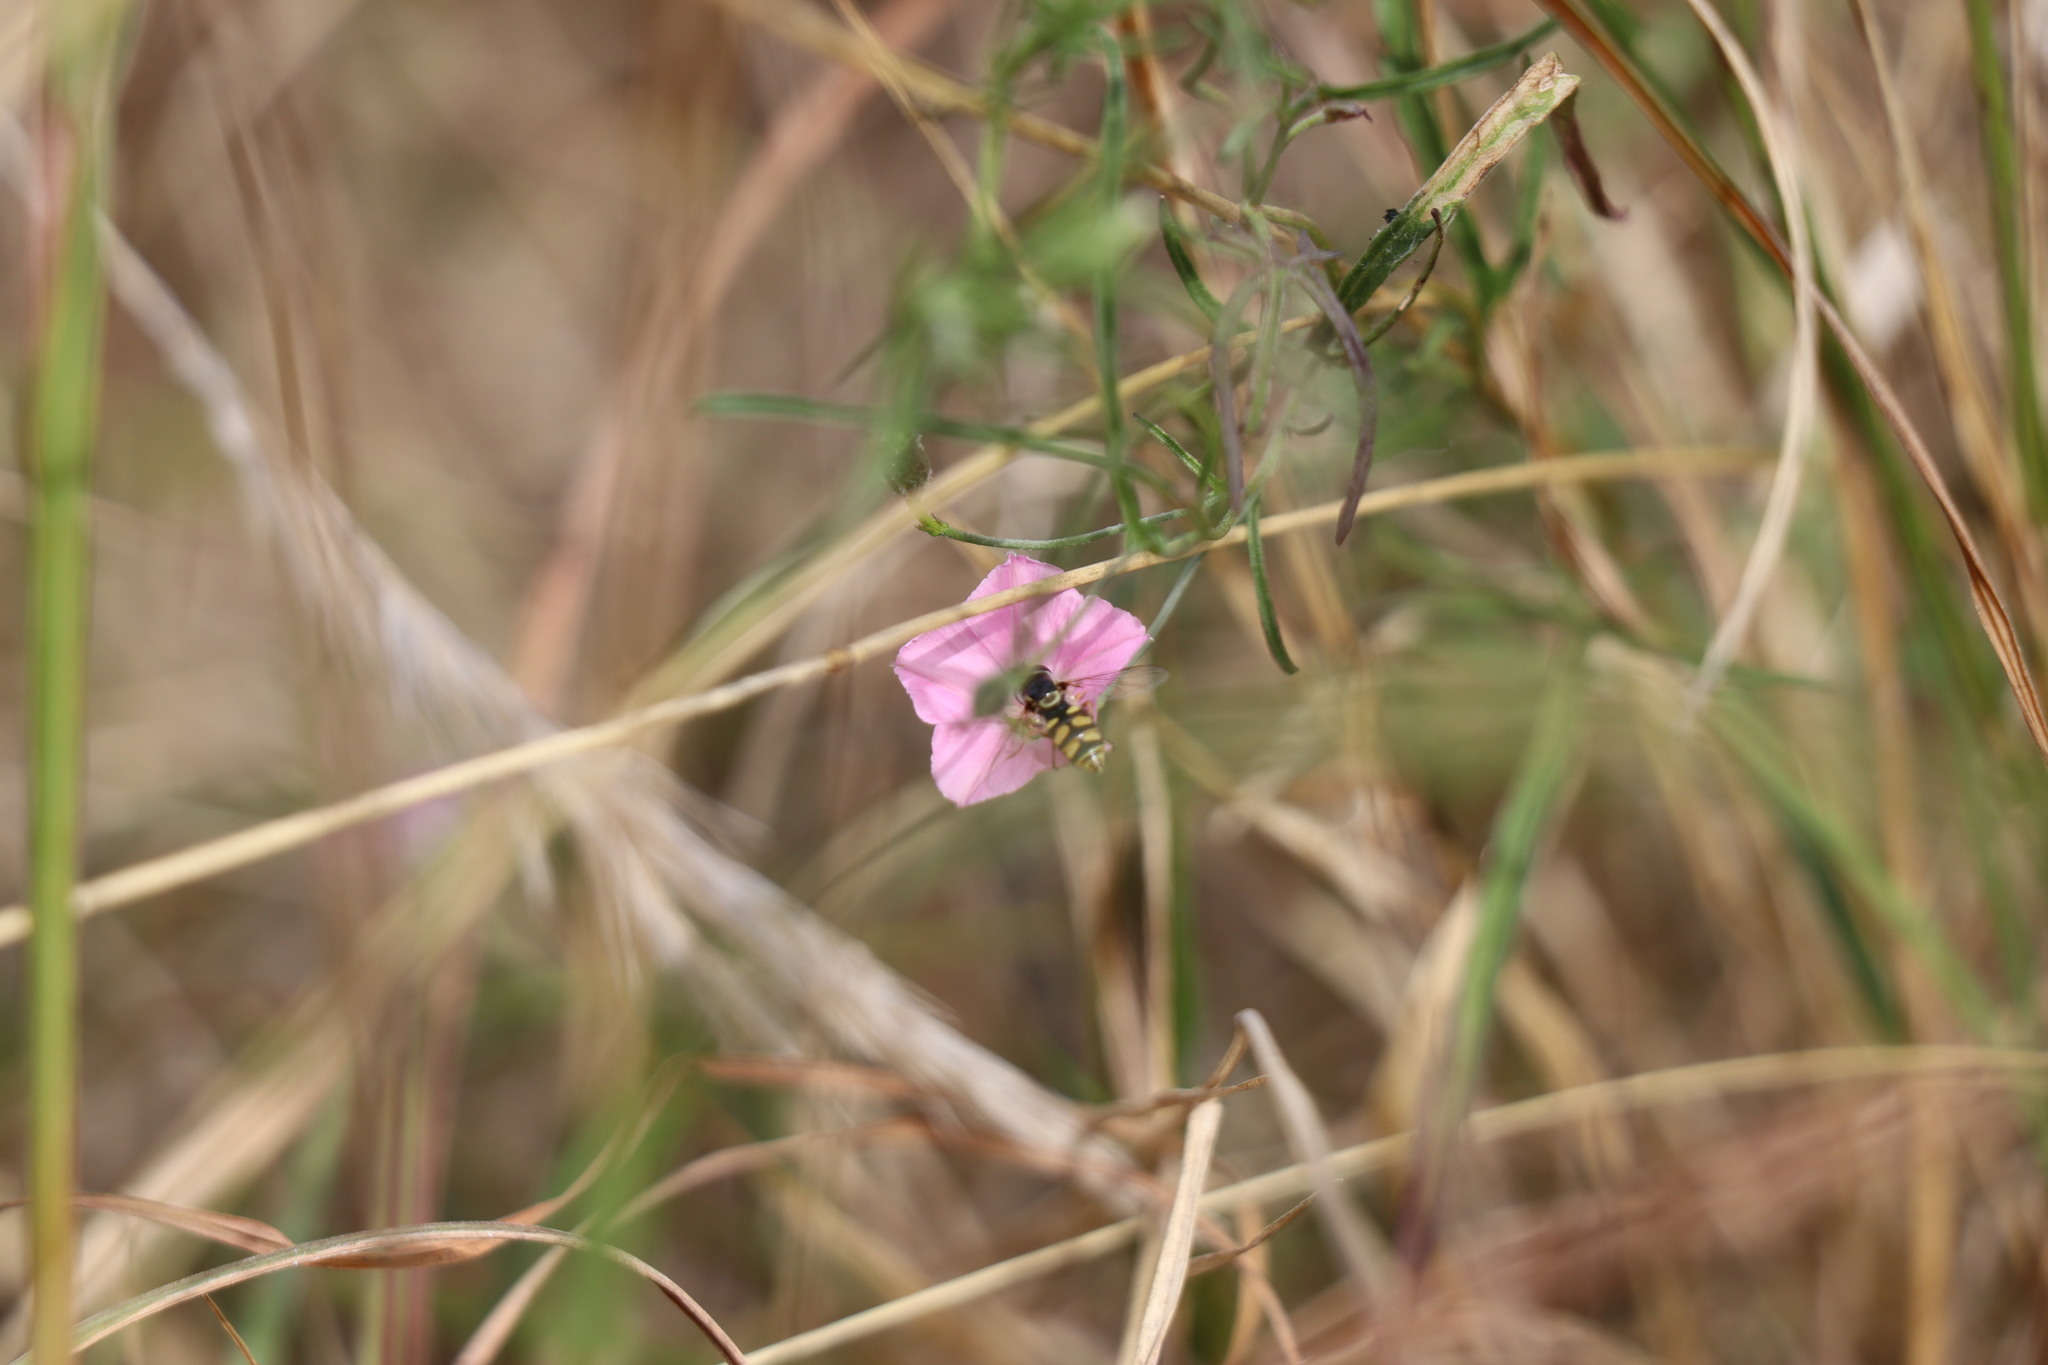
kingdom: Plantae
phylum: Tracheophyta
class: Magnoliopsida
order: Solanales
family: Convolvulaceae
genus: Convolvulus
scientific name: Convolvulus angustissimus
